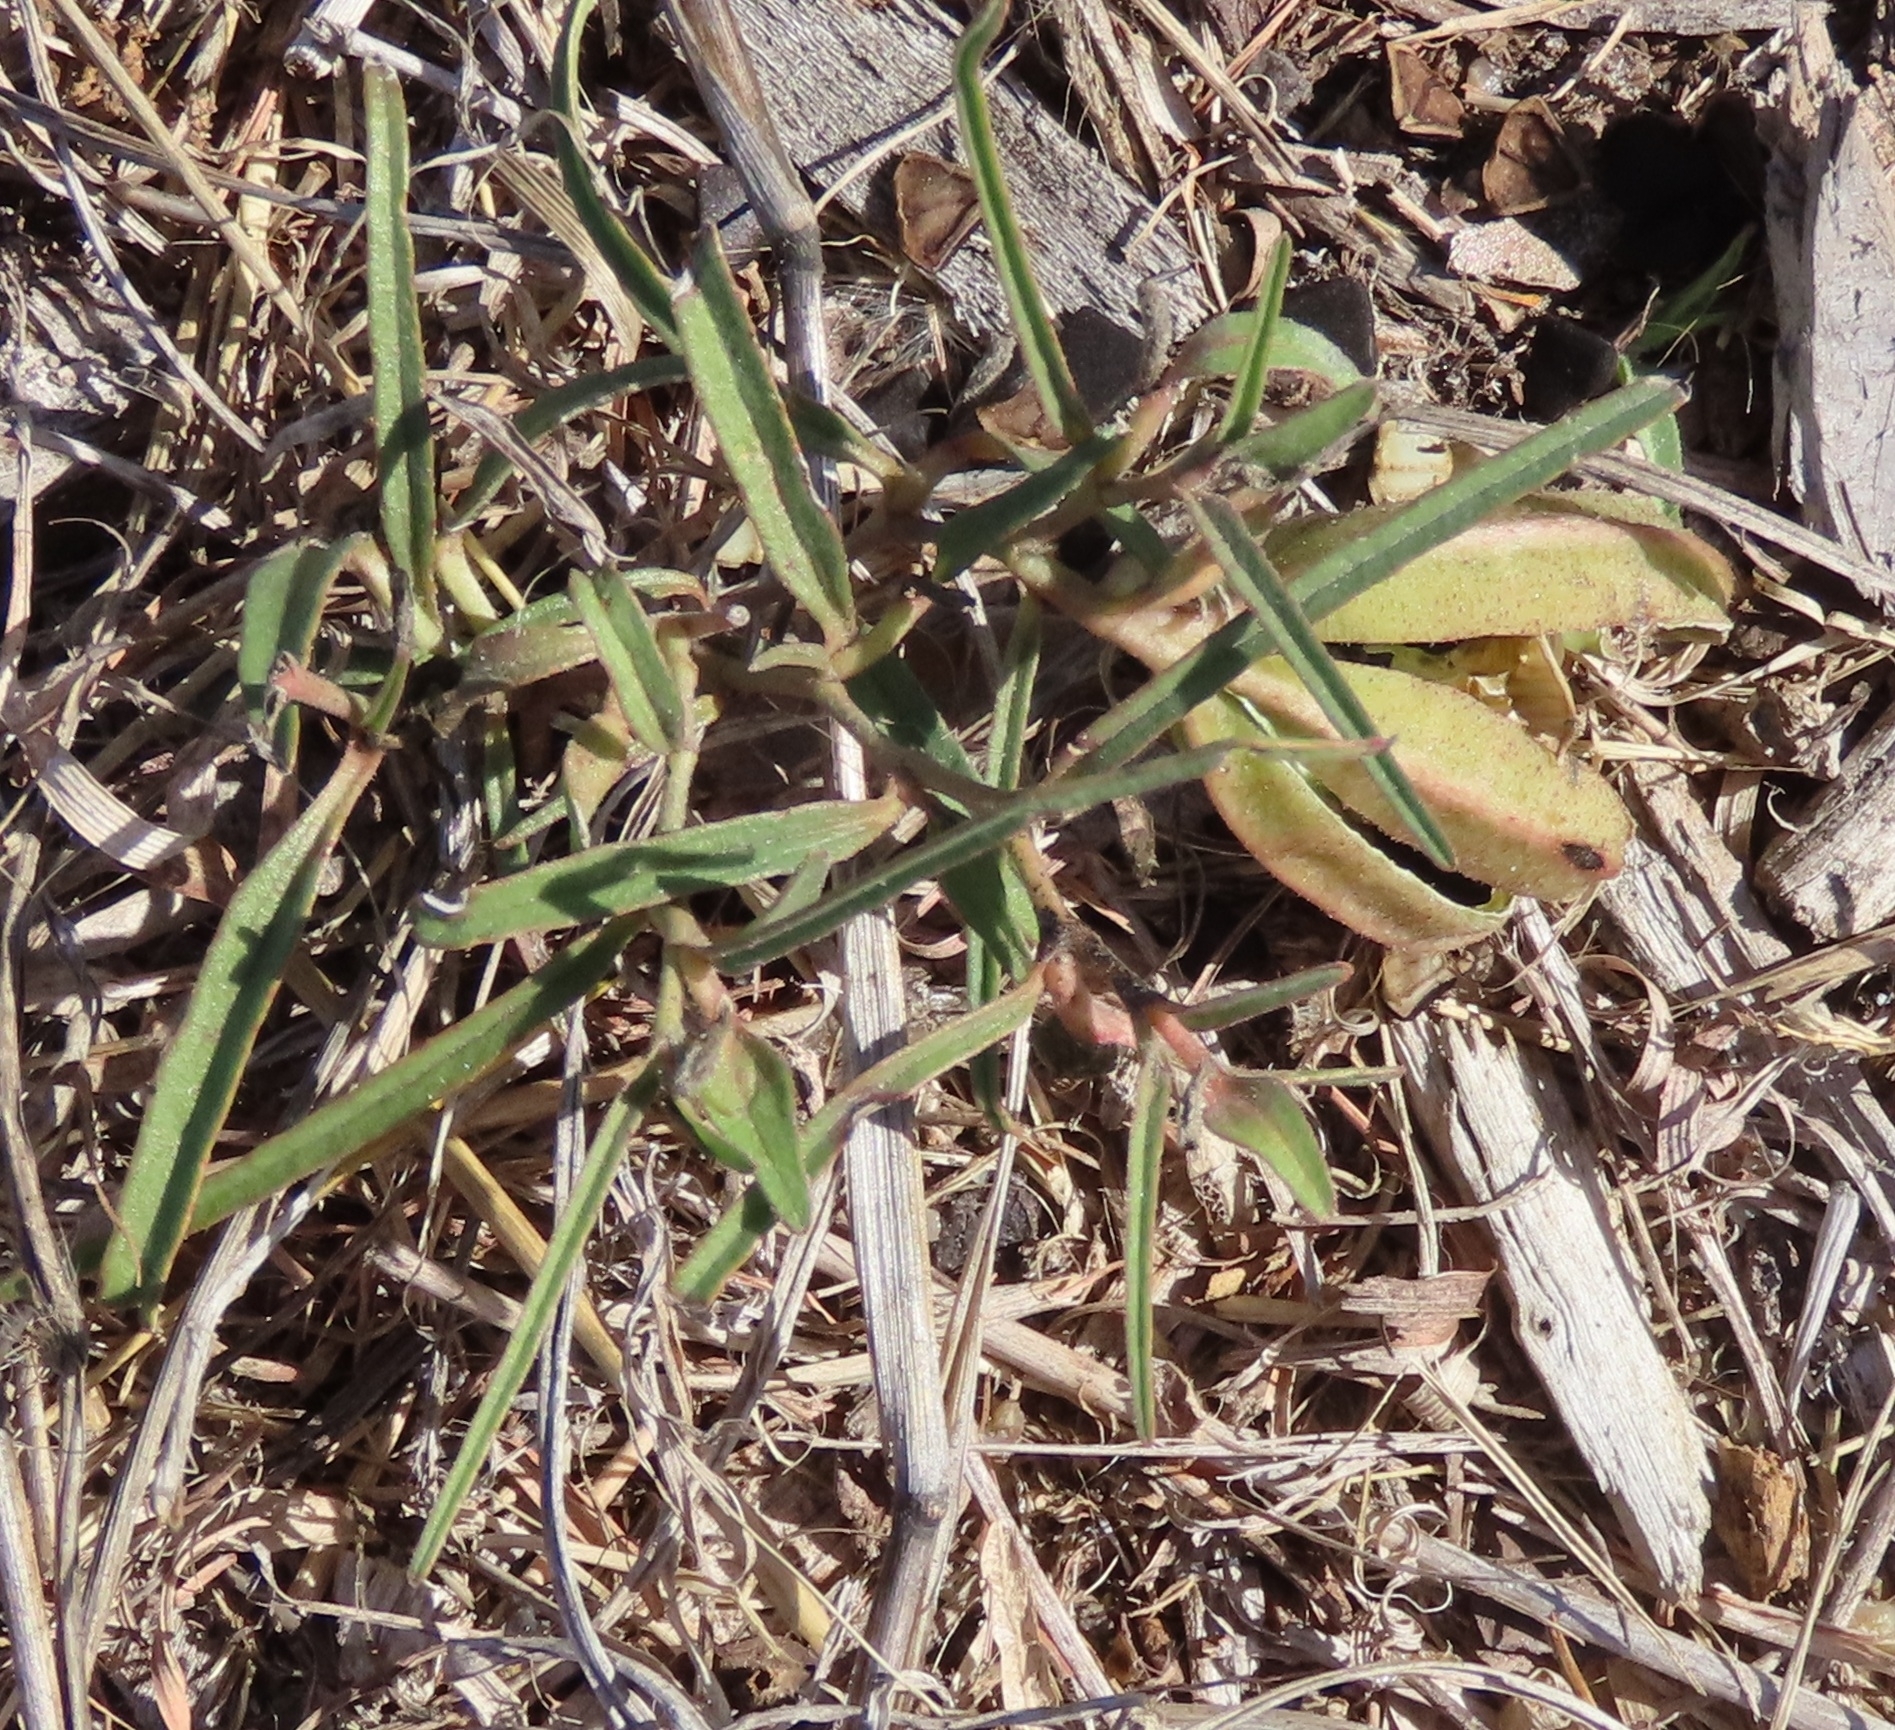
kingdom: Plantae
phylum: Tracheophyta
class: Magnoliopsida
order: Piperales
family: Aristolochiaceae
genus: Aristolochia
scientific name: Aristolochia erecta
